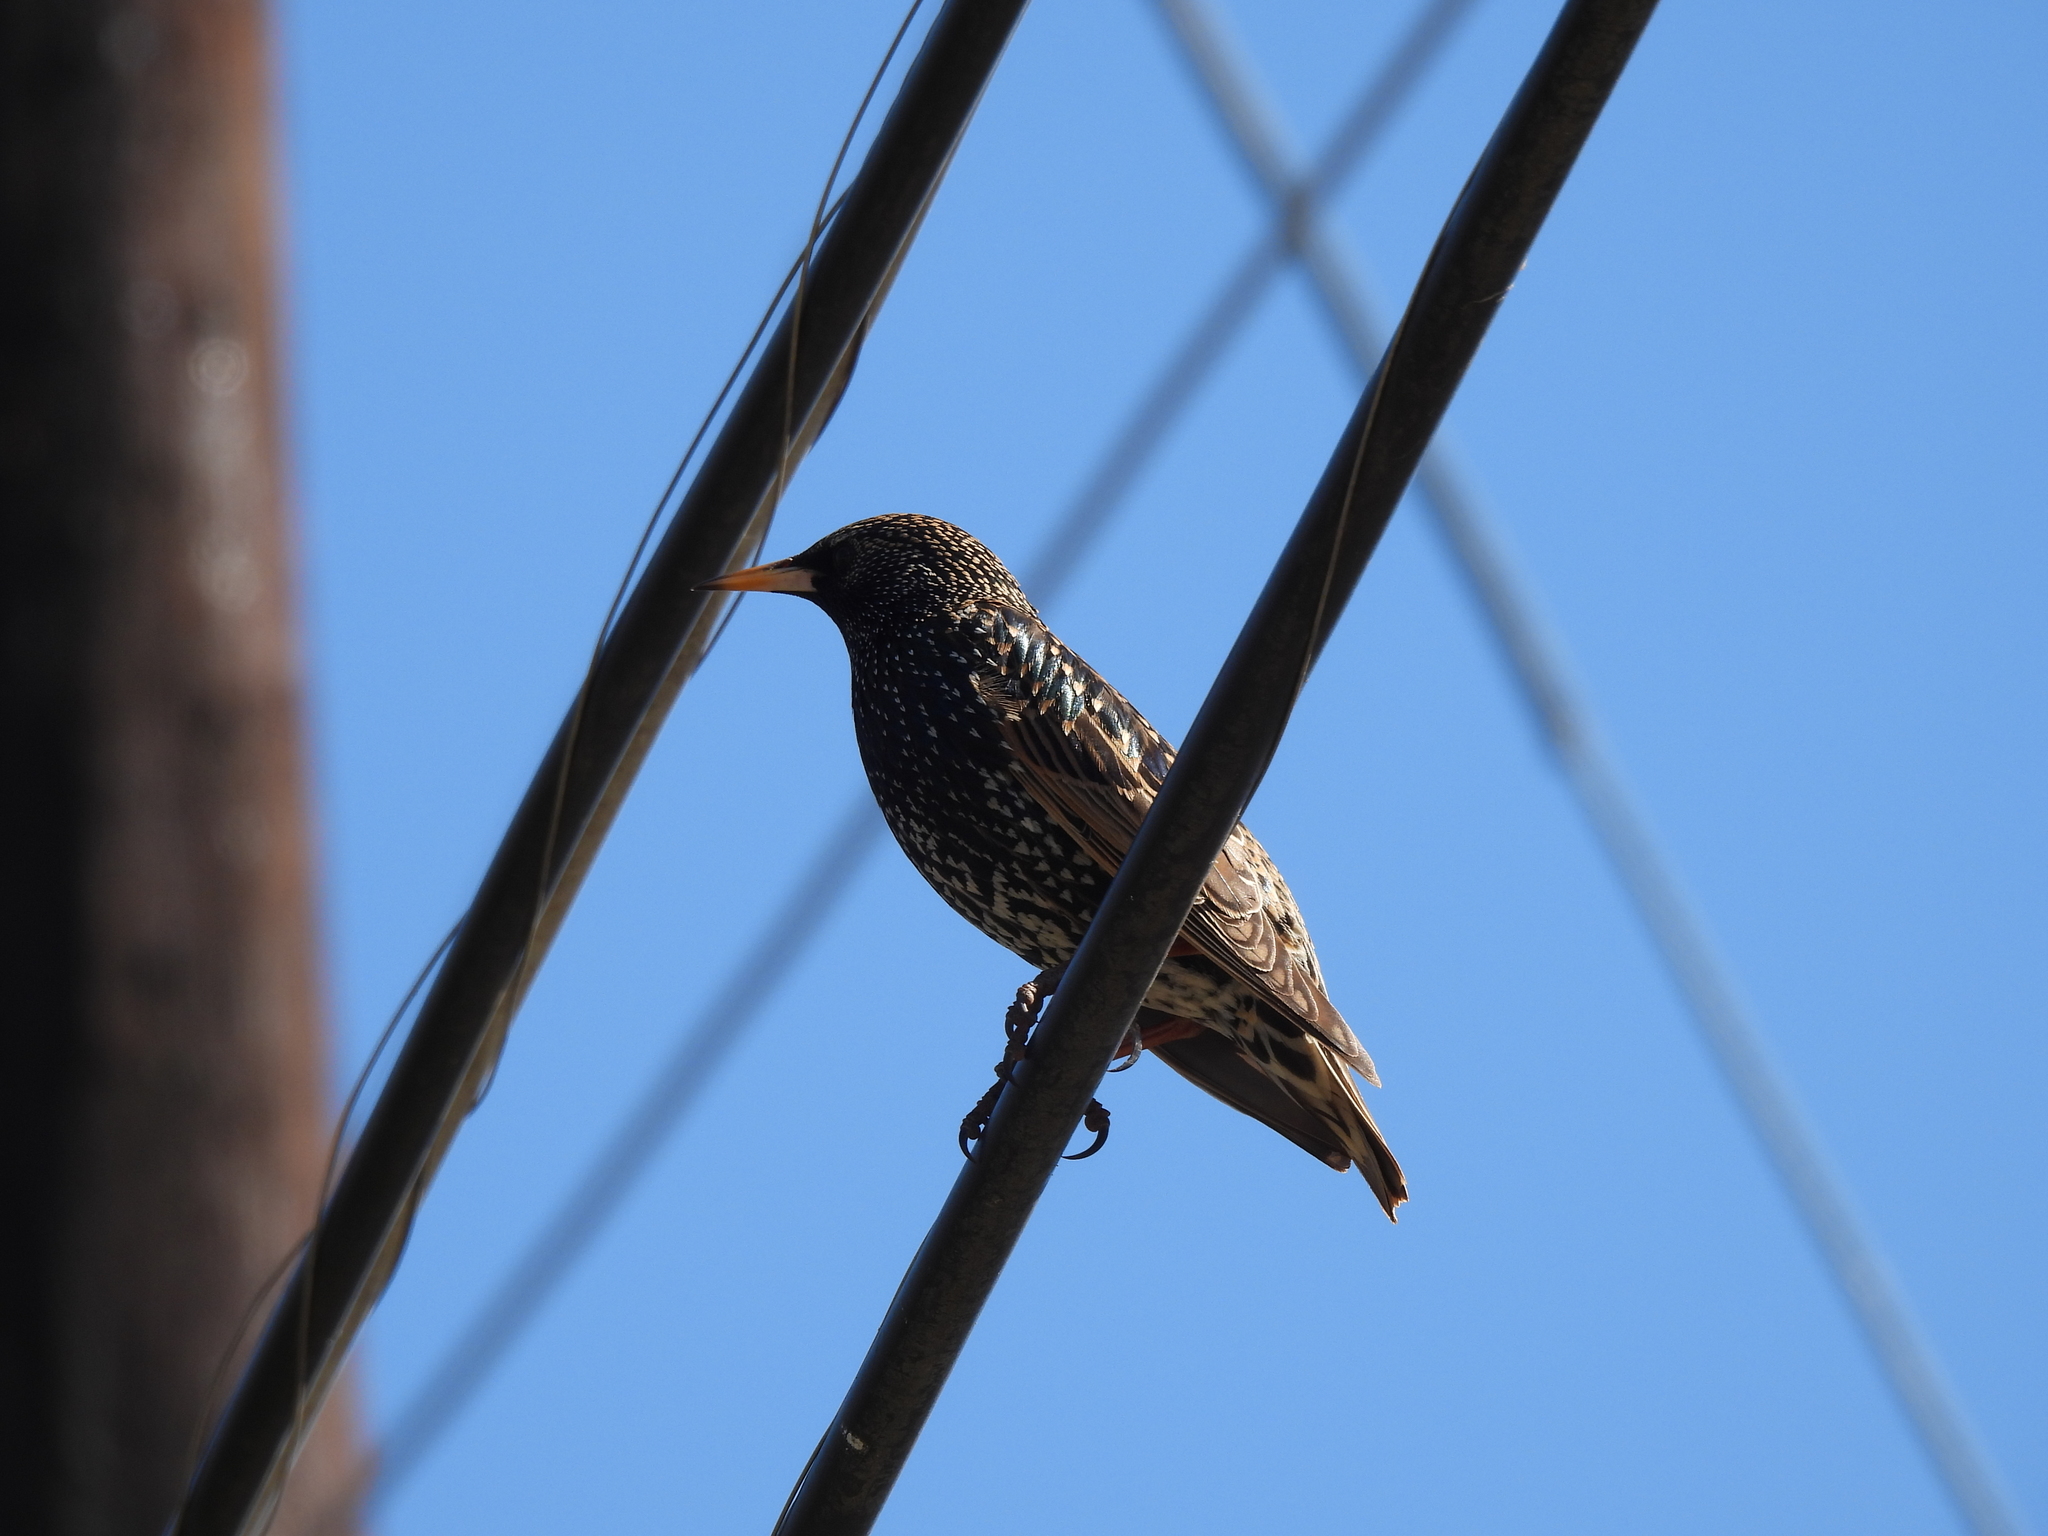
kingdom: Animalia
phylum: Chordata
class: Aves
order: Passeriformes
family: Sturnidae
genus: Sturnus
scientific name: Sturnus vulgaris
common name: Common starling
